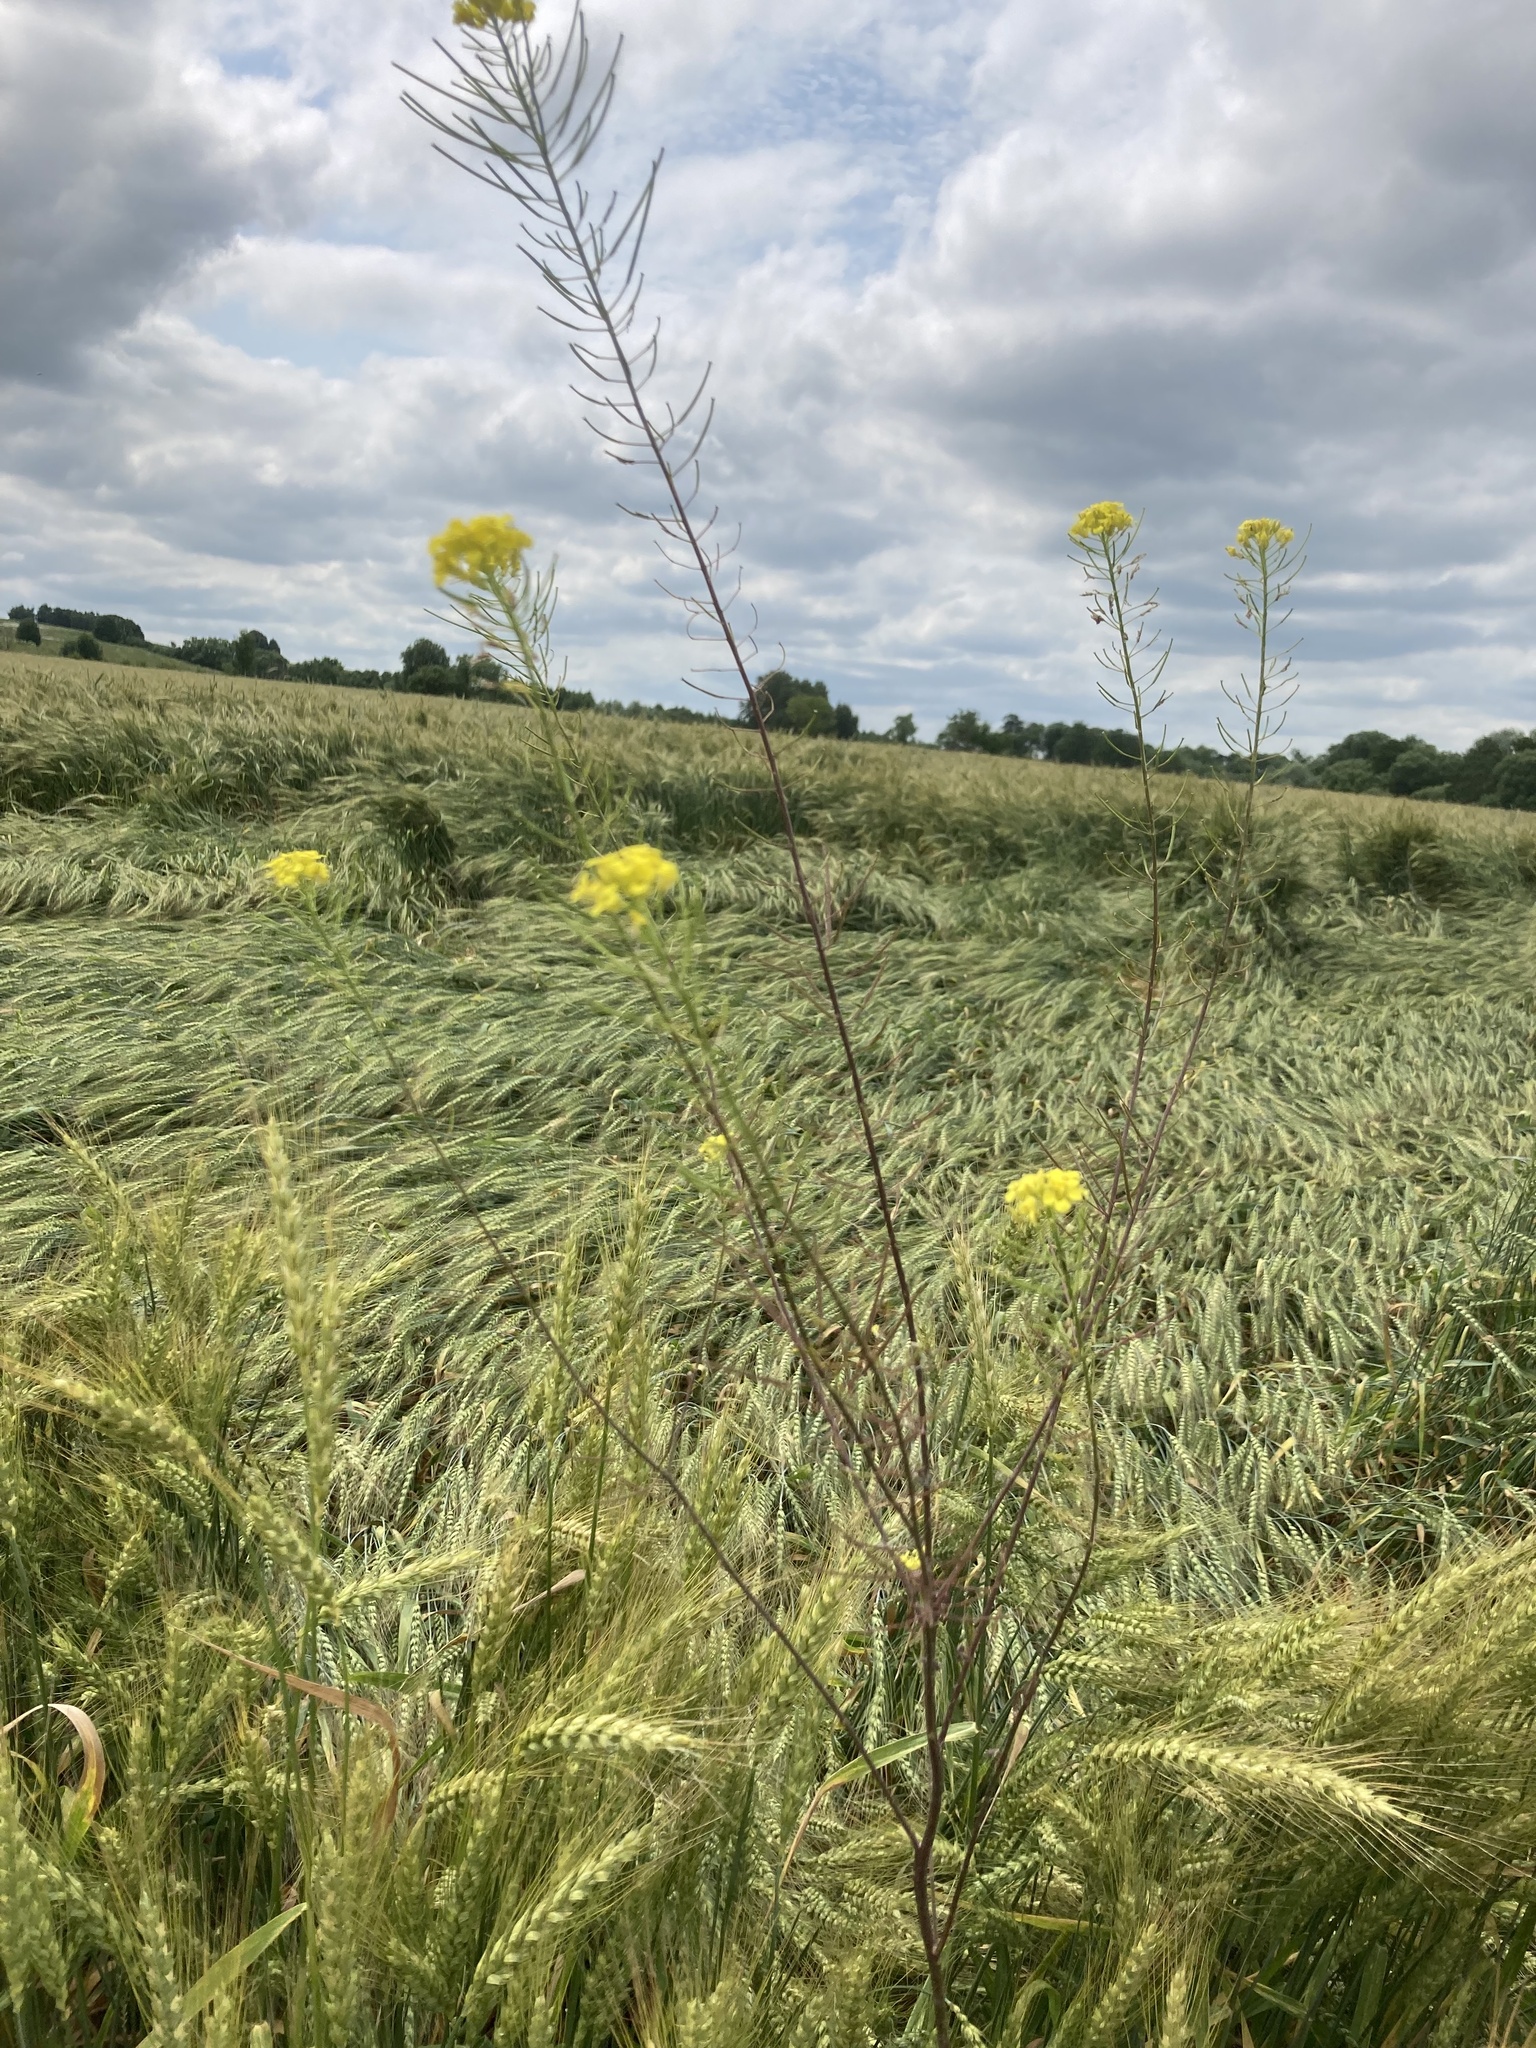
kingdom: Plantae
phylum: Tracheophyta
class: Magnoliopsida
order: Brassicales
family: Brassicaceae
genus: Sisymbrium
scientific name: Sisymbrium loeselii
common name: False london-rocket
